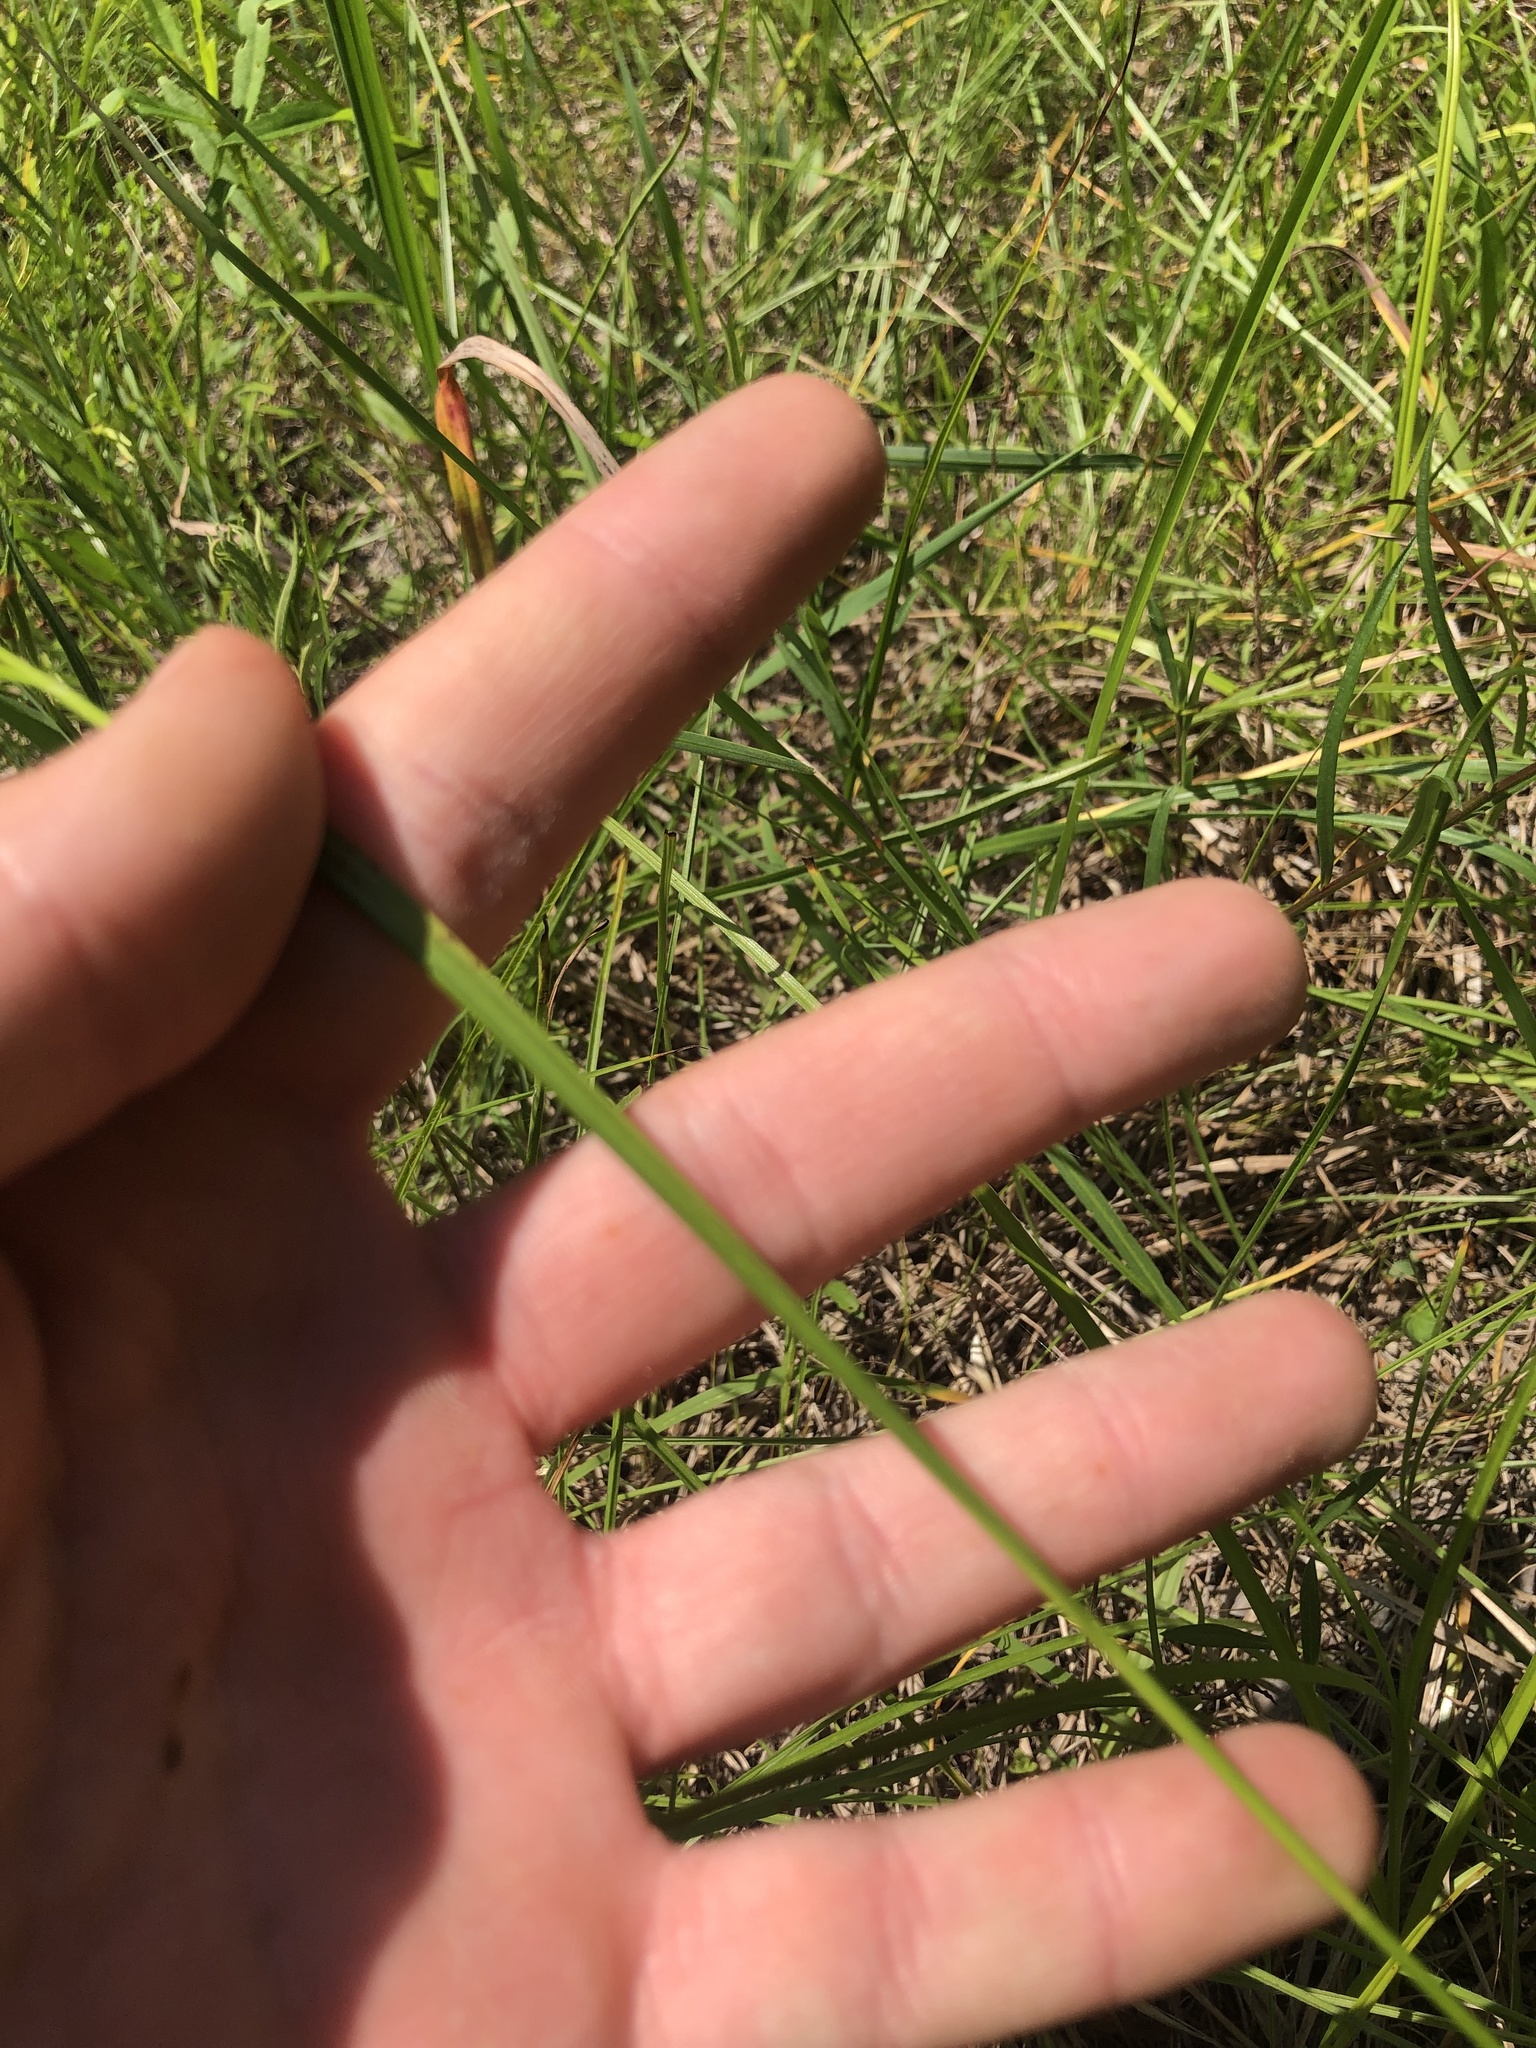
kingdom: Plantae
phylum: Tracheophyta
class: Liliopsida
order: Poales
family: Cyperaceae
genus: Rhynchospora
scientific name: Rhynchospora mixta
